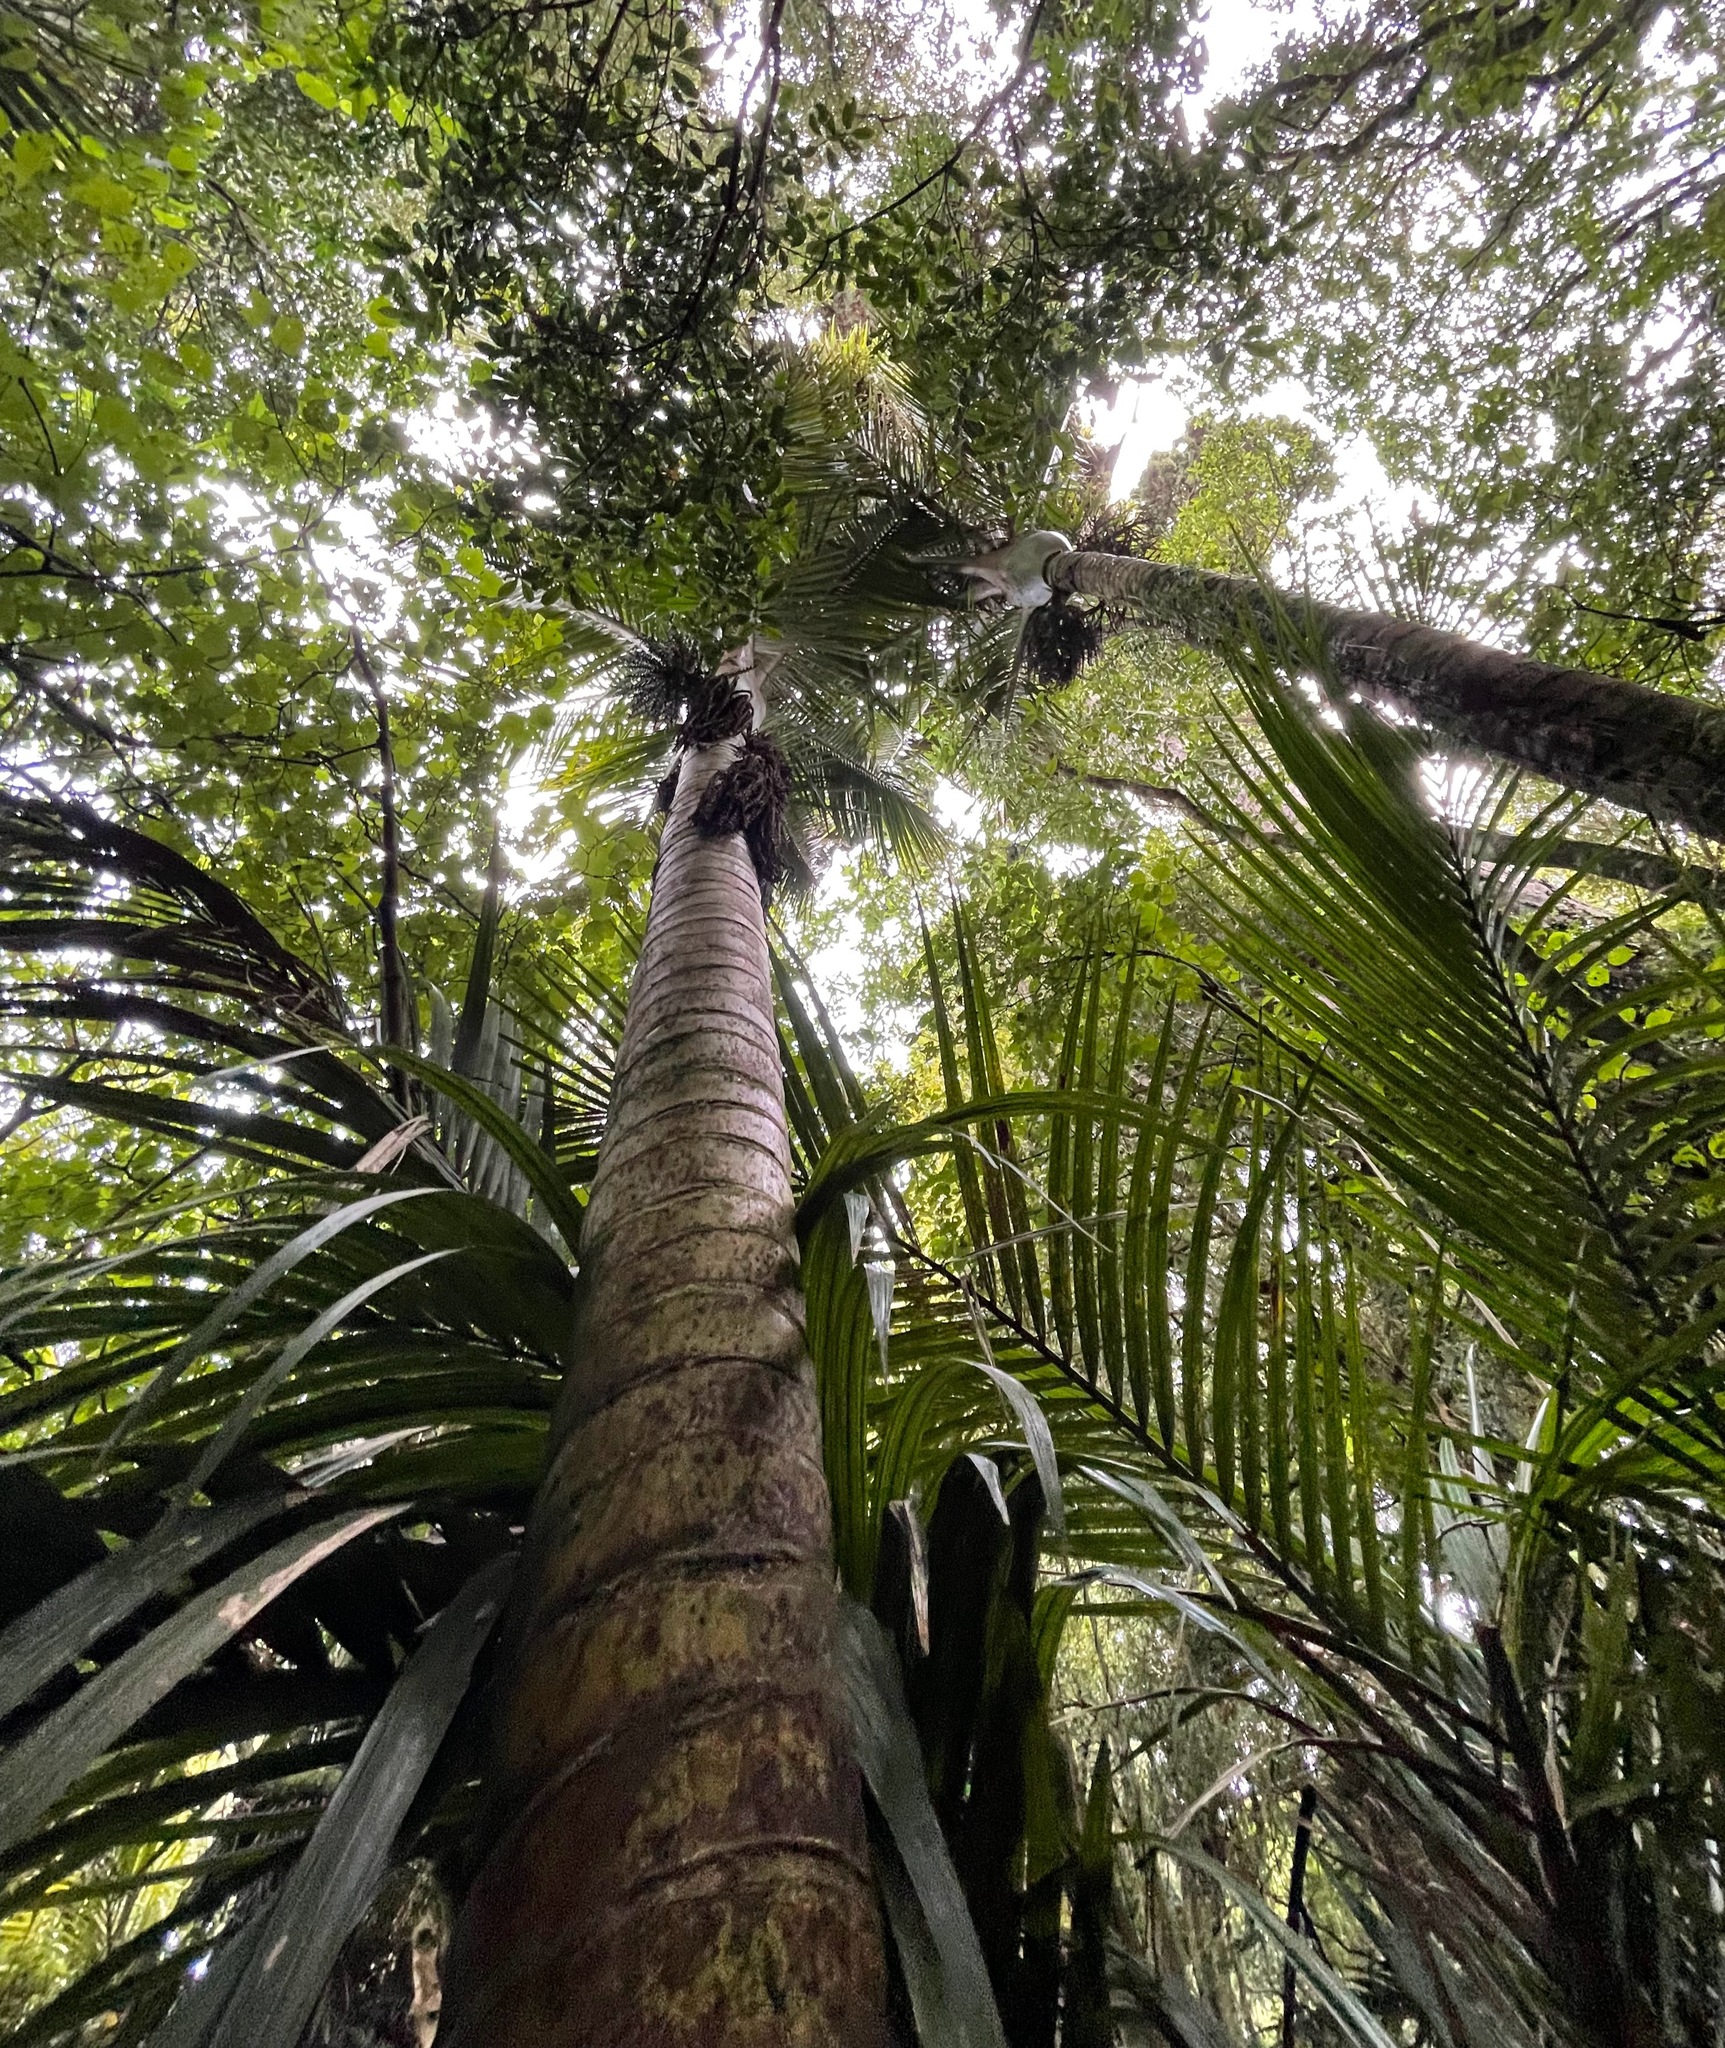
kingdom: Plantae
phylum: Tracheophyta
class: Liliopsida
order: Arecales
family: Arecaceae
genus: Rhopalostylis
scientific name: Rhopalostylis sapida
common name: Feather-duster palm
